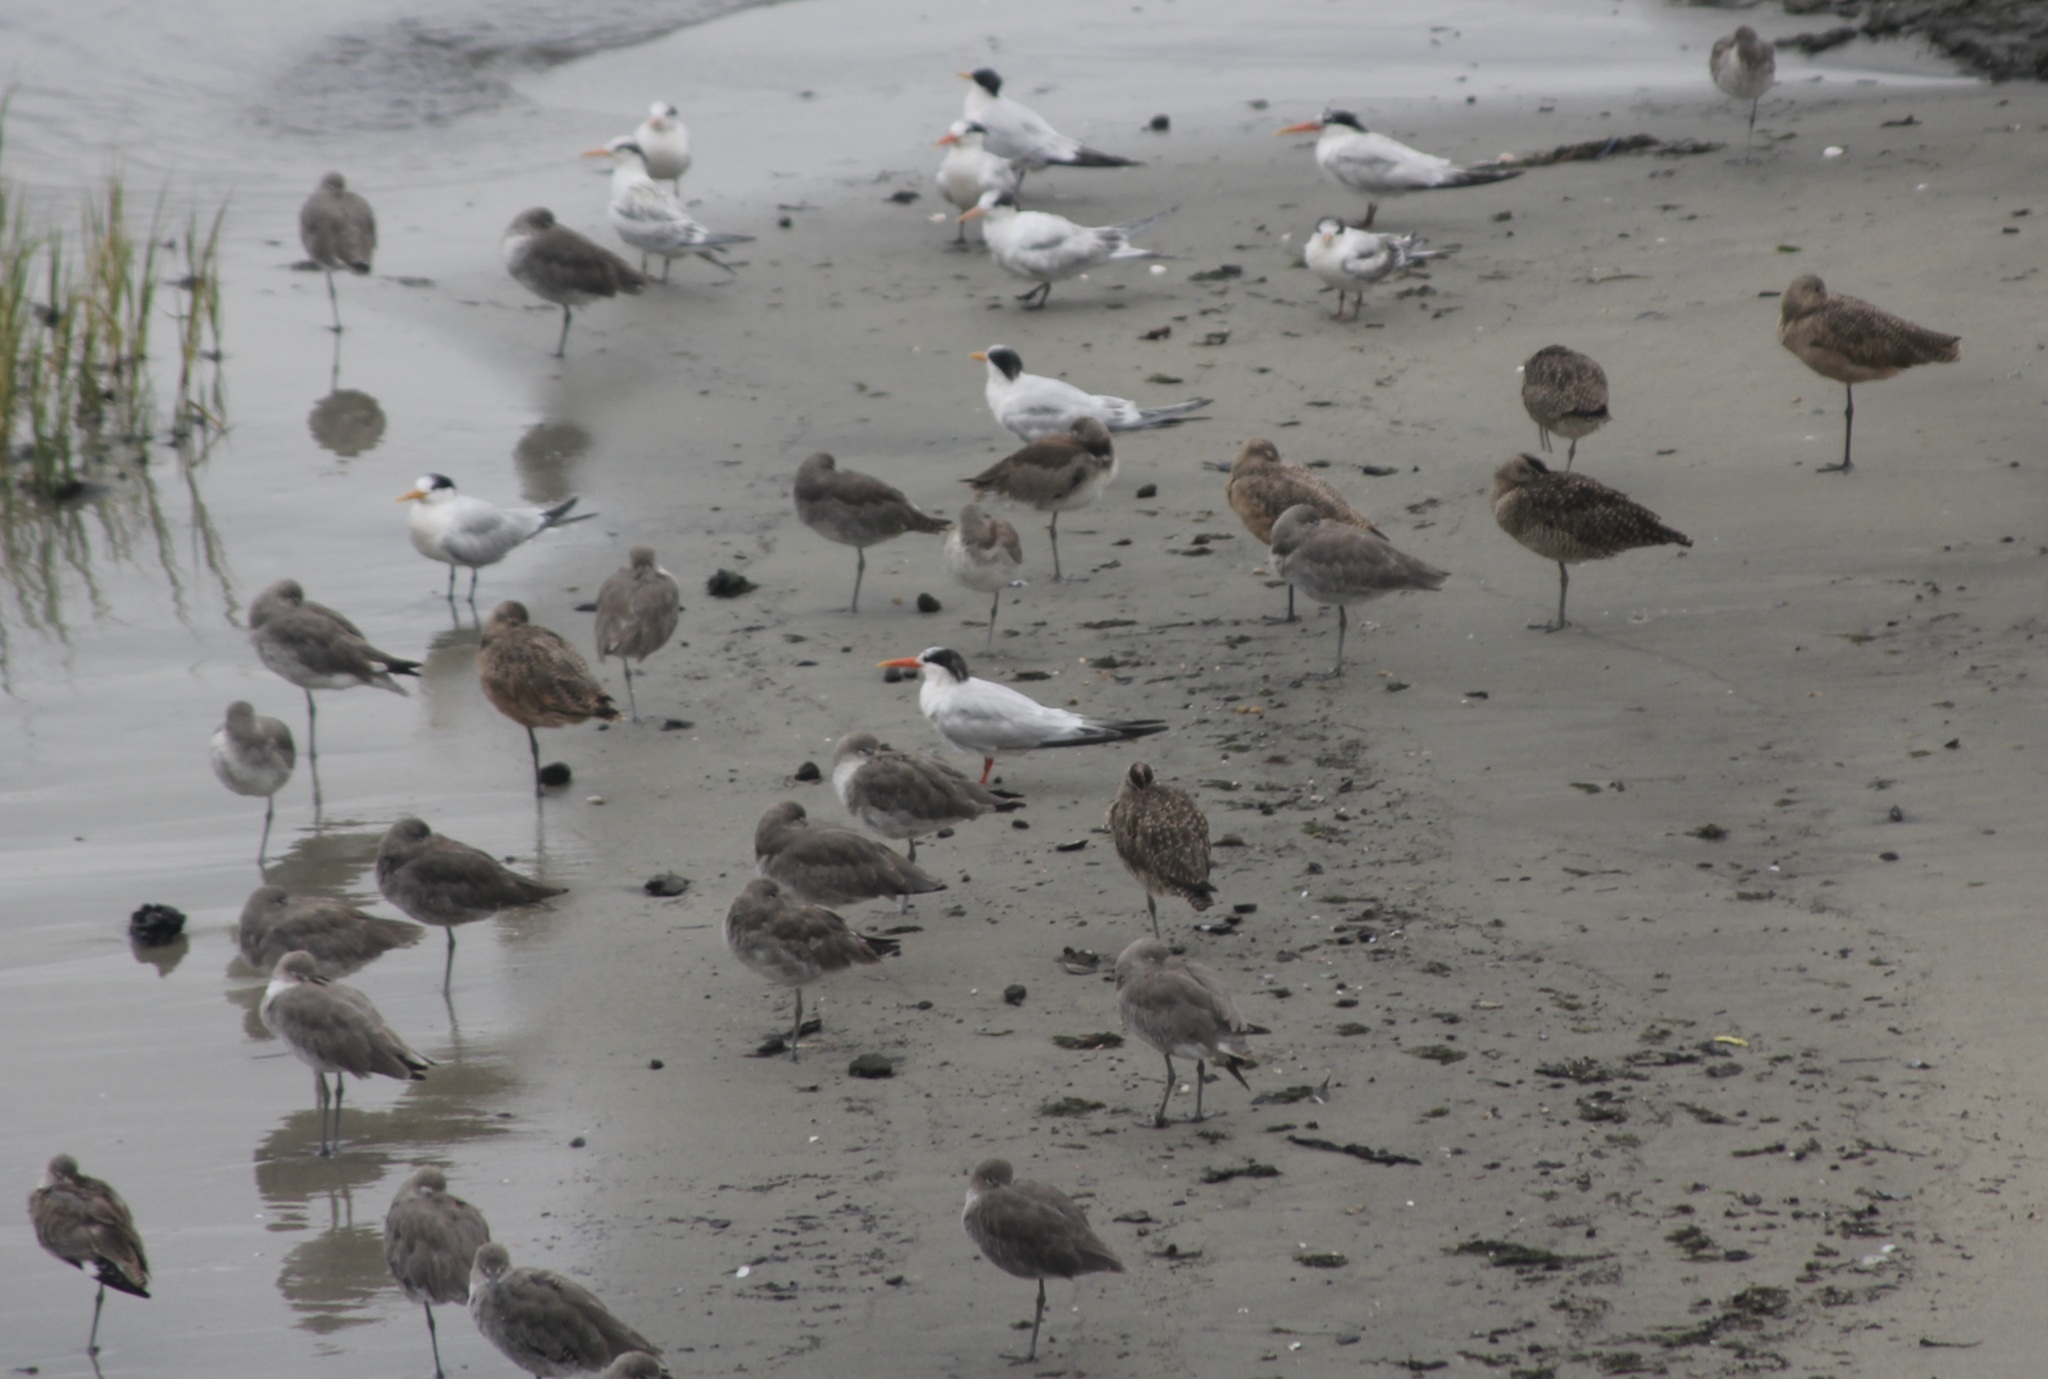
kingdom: Animalia
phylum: Chordata
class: Aves
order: Charadriiformes
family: Scolopacidae
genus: Limosa
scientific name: Limosa fedoa
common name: Marbled godwit
